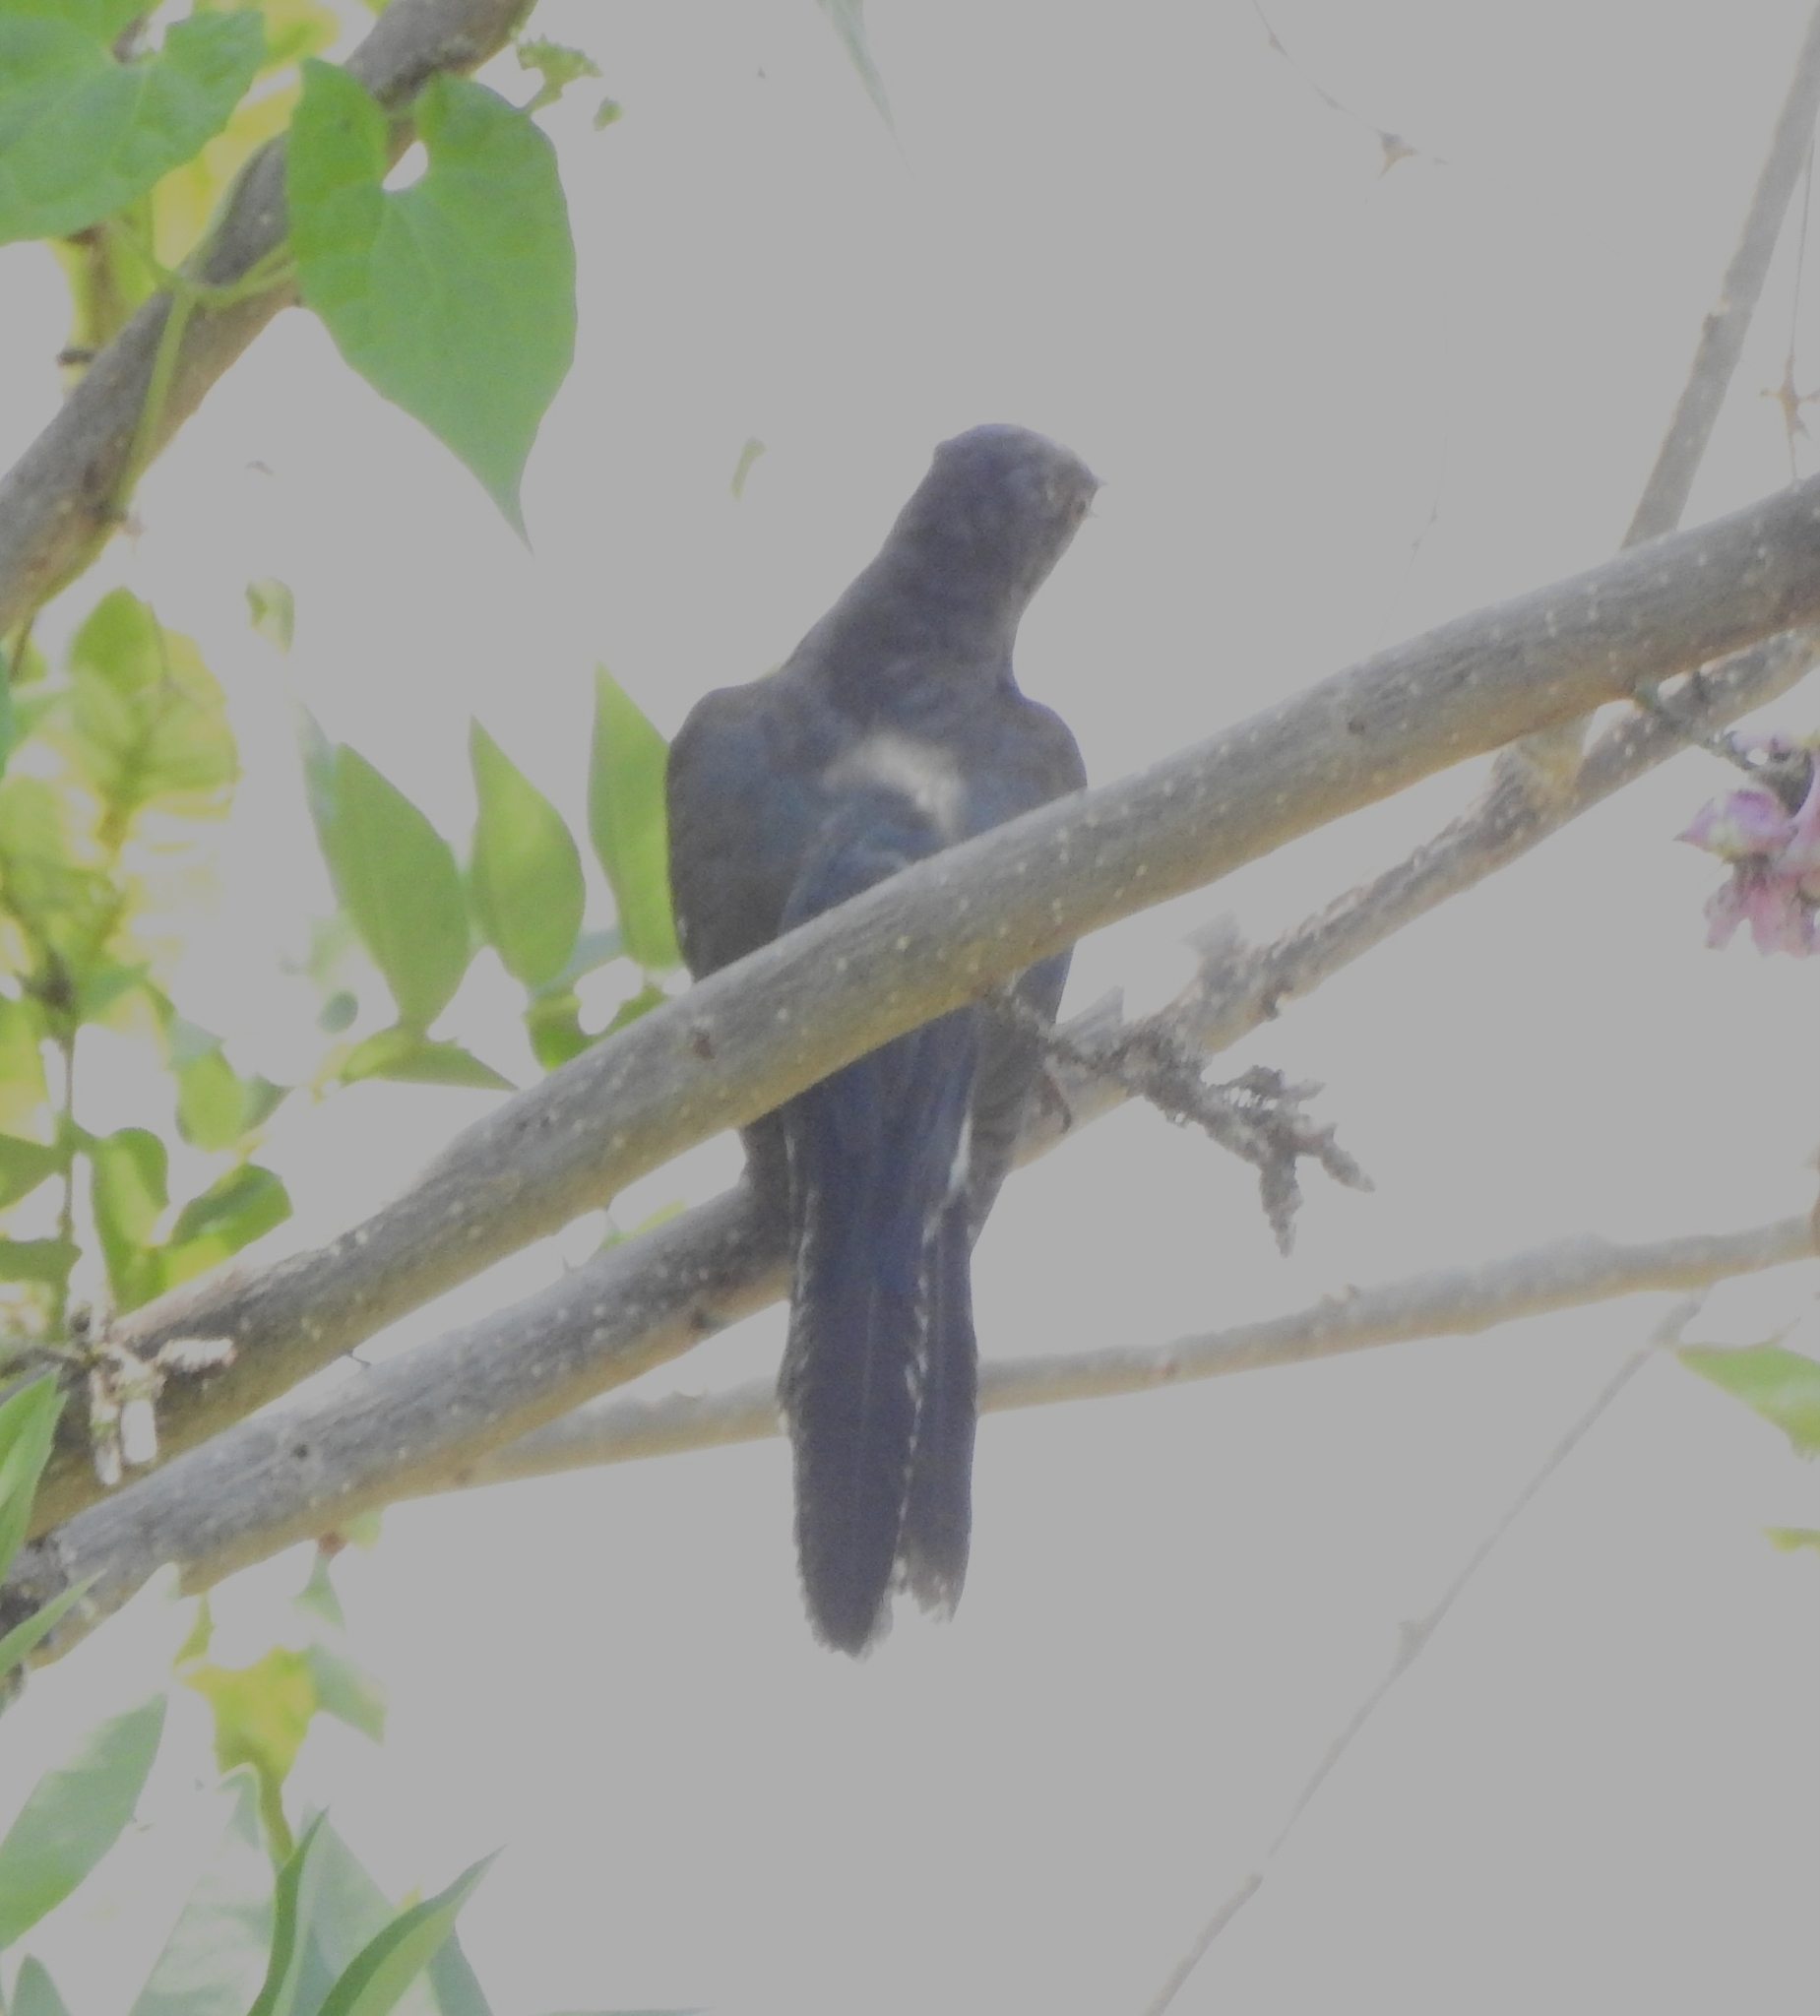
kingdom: Animalia
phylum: Chordata
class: Aves
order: Cuculiformes
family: Cuculidae
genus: Cacomantis
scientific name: Cacomantis passerinus
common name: Grey-bellied cuckoo
